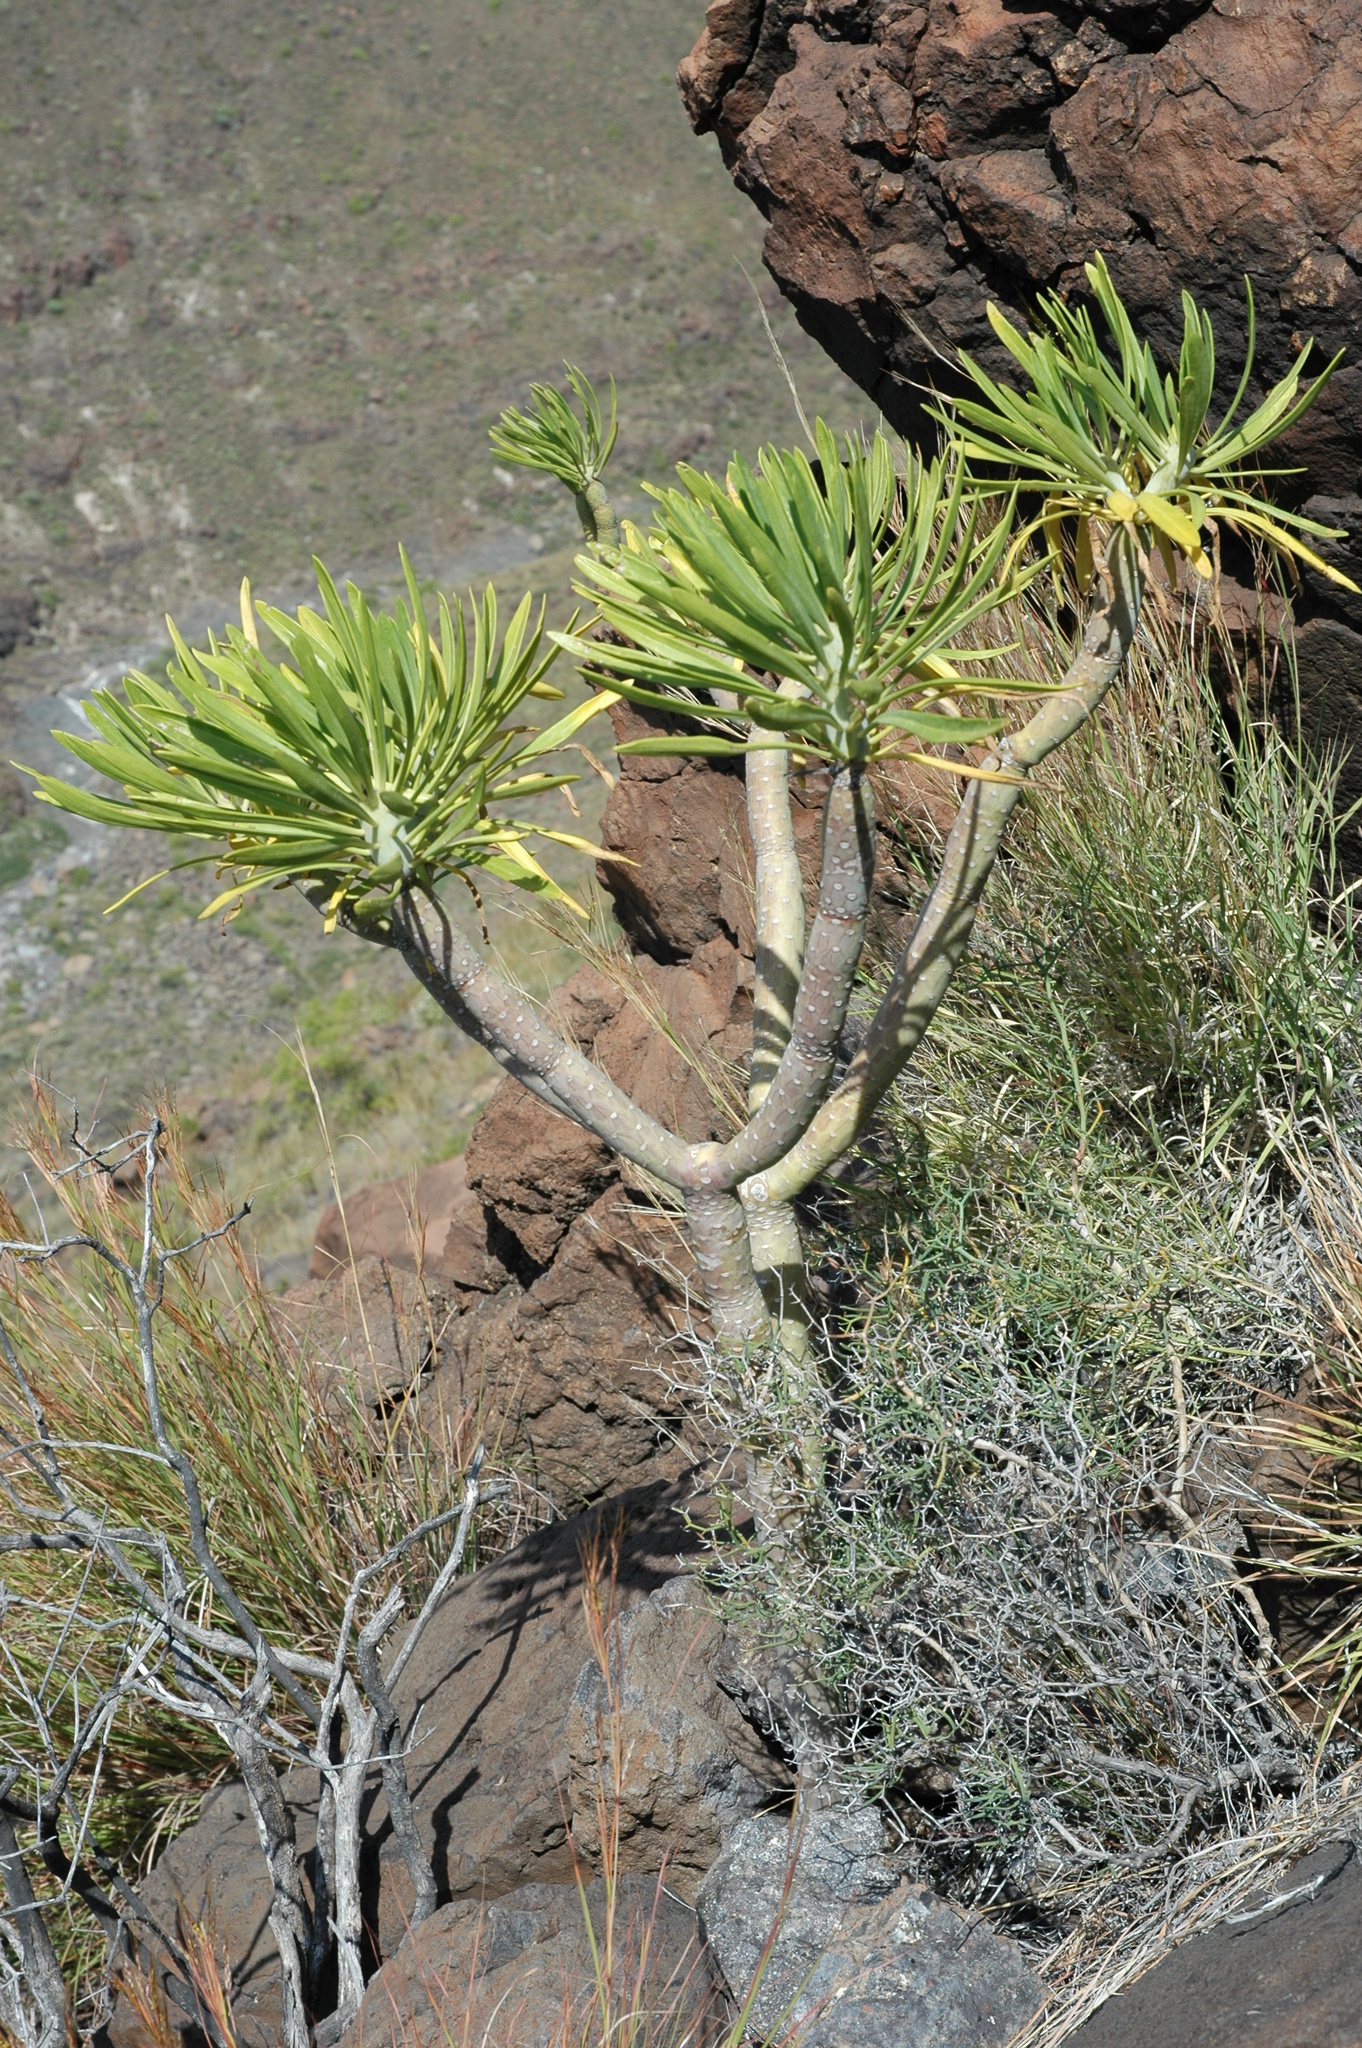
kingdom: Plantae
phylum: Tracheophyta
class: Magnoliopsida
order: Asterales
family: Asteraceae
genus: Kleinia
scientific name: Kleinia neriifolia
